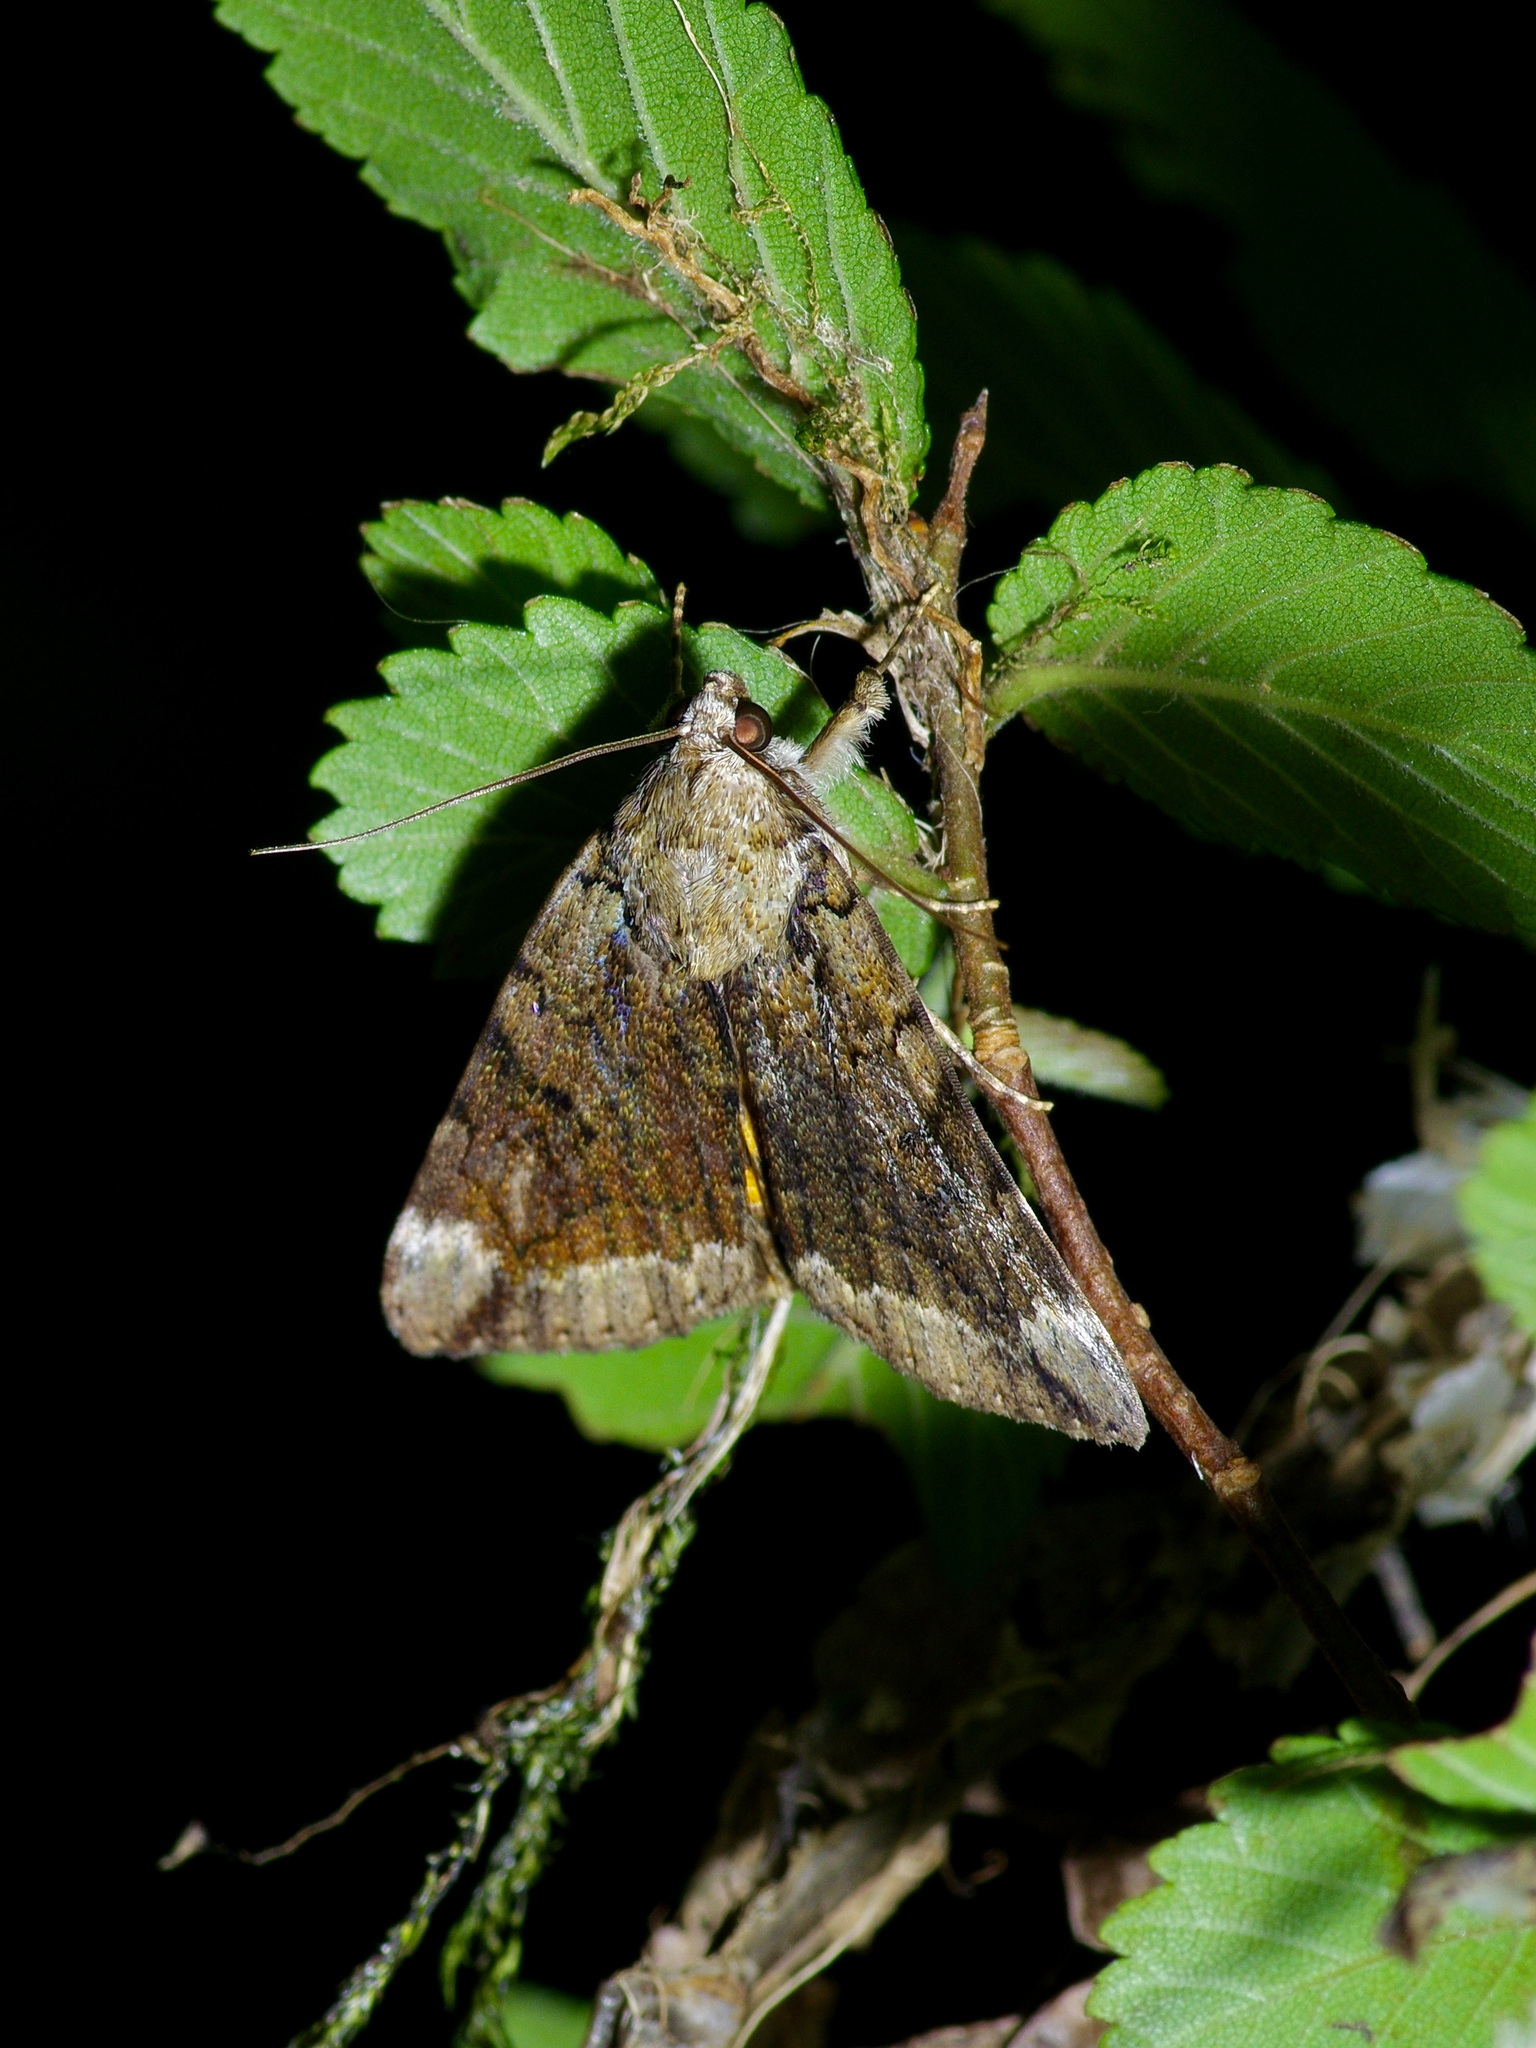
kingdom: Animalia
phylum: Arthropoda
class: Insecta
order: Lepidoptera
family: Erebidae
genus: Catocala
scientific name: Catocala micronympha
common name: Little nymph underwing
